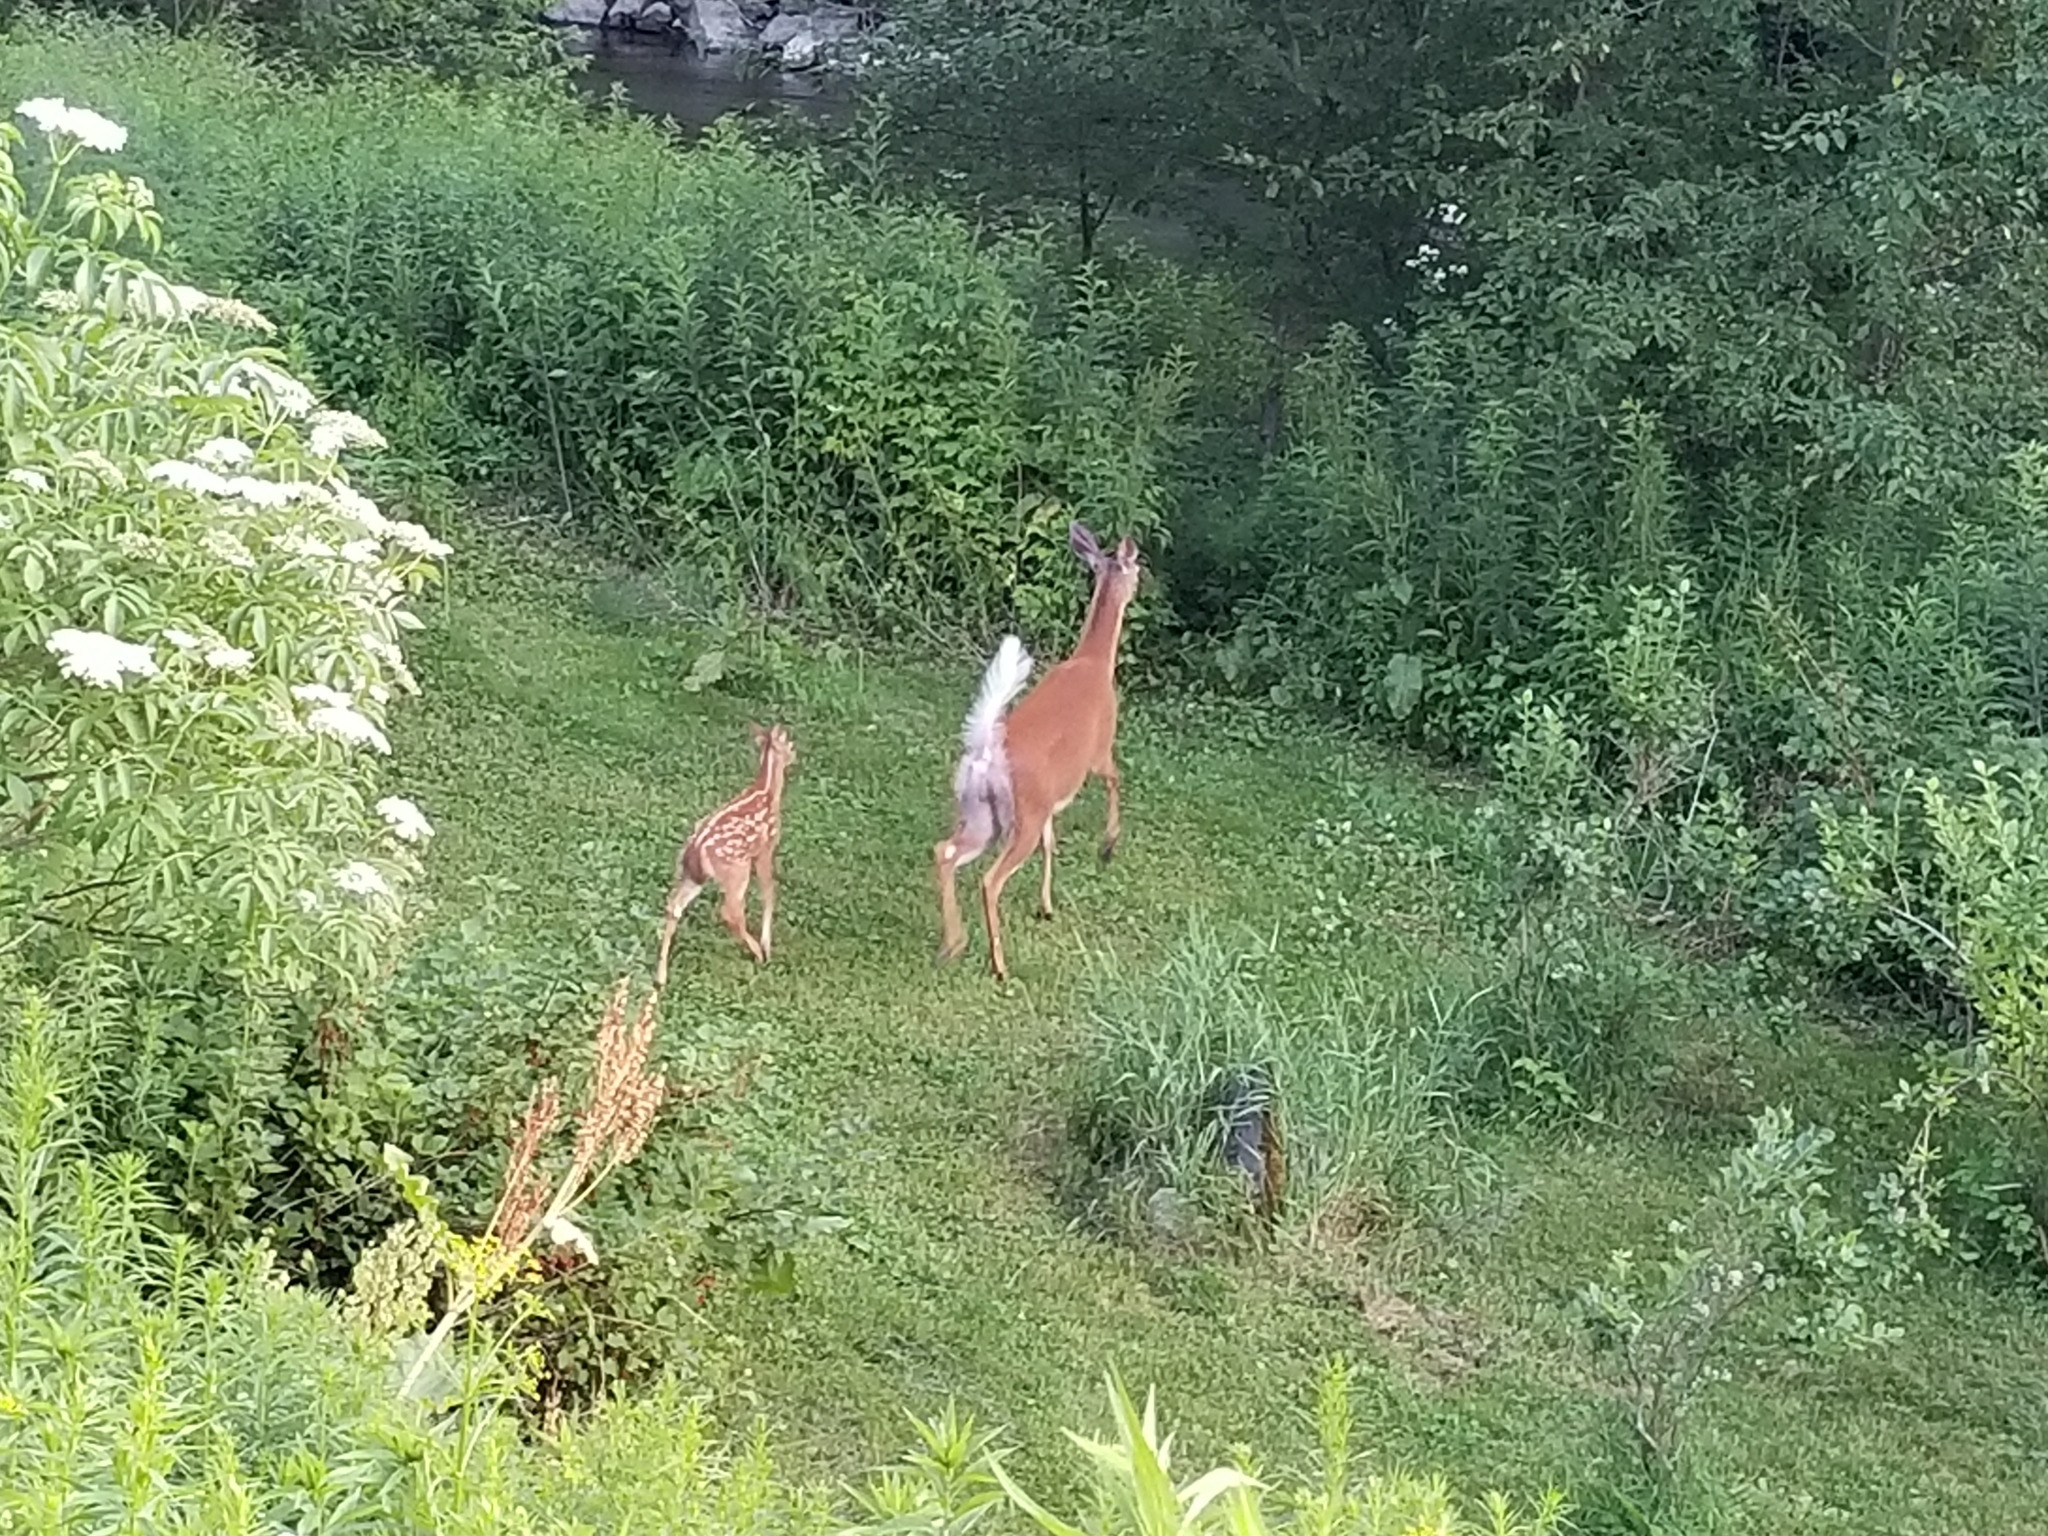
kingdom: Animalia
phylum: Chordata
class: Mammalia
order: Artiodactyla
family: Cervidae
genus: Odocoileus
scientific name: Odocoileus virginianus
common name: White-tailed deer
